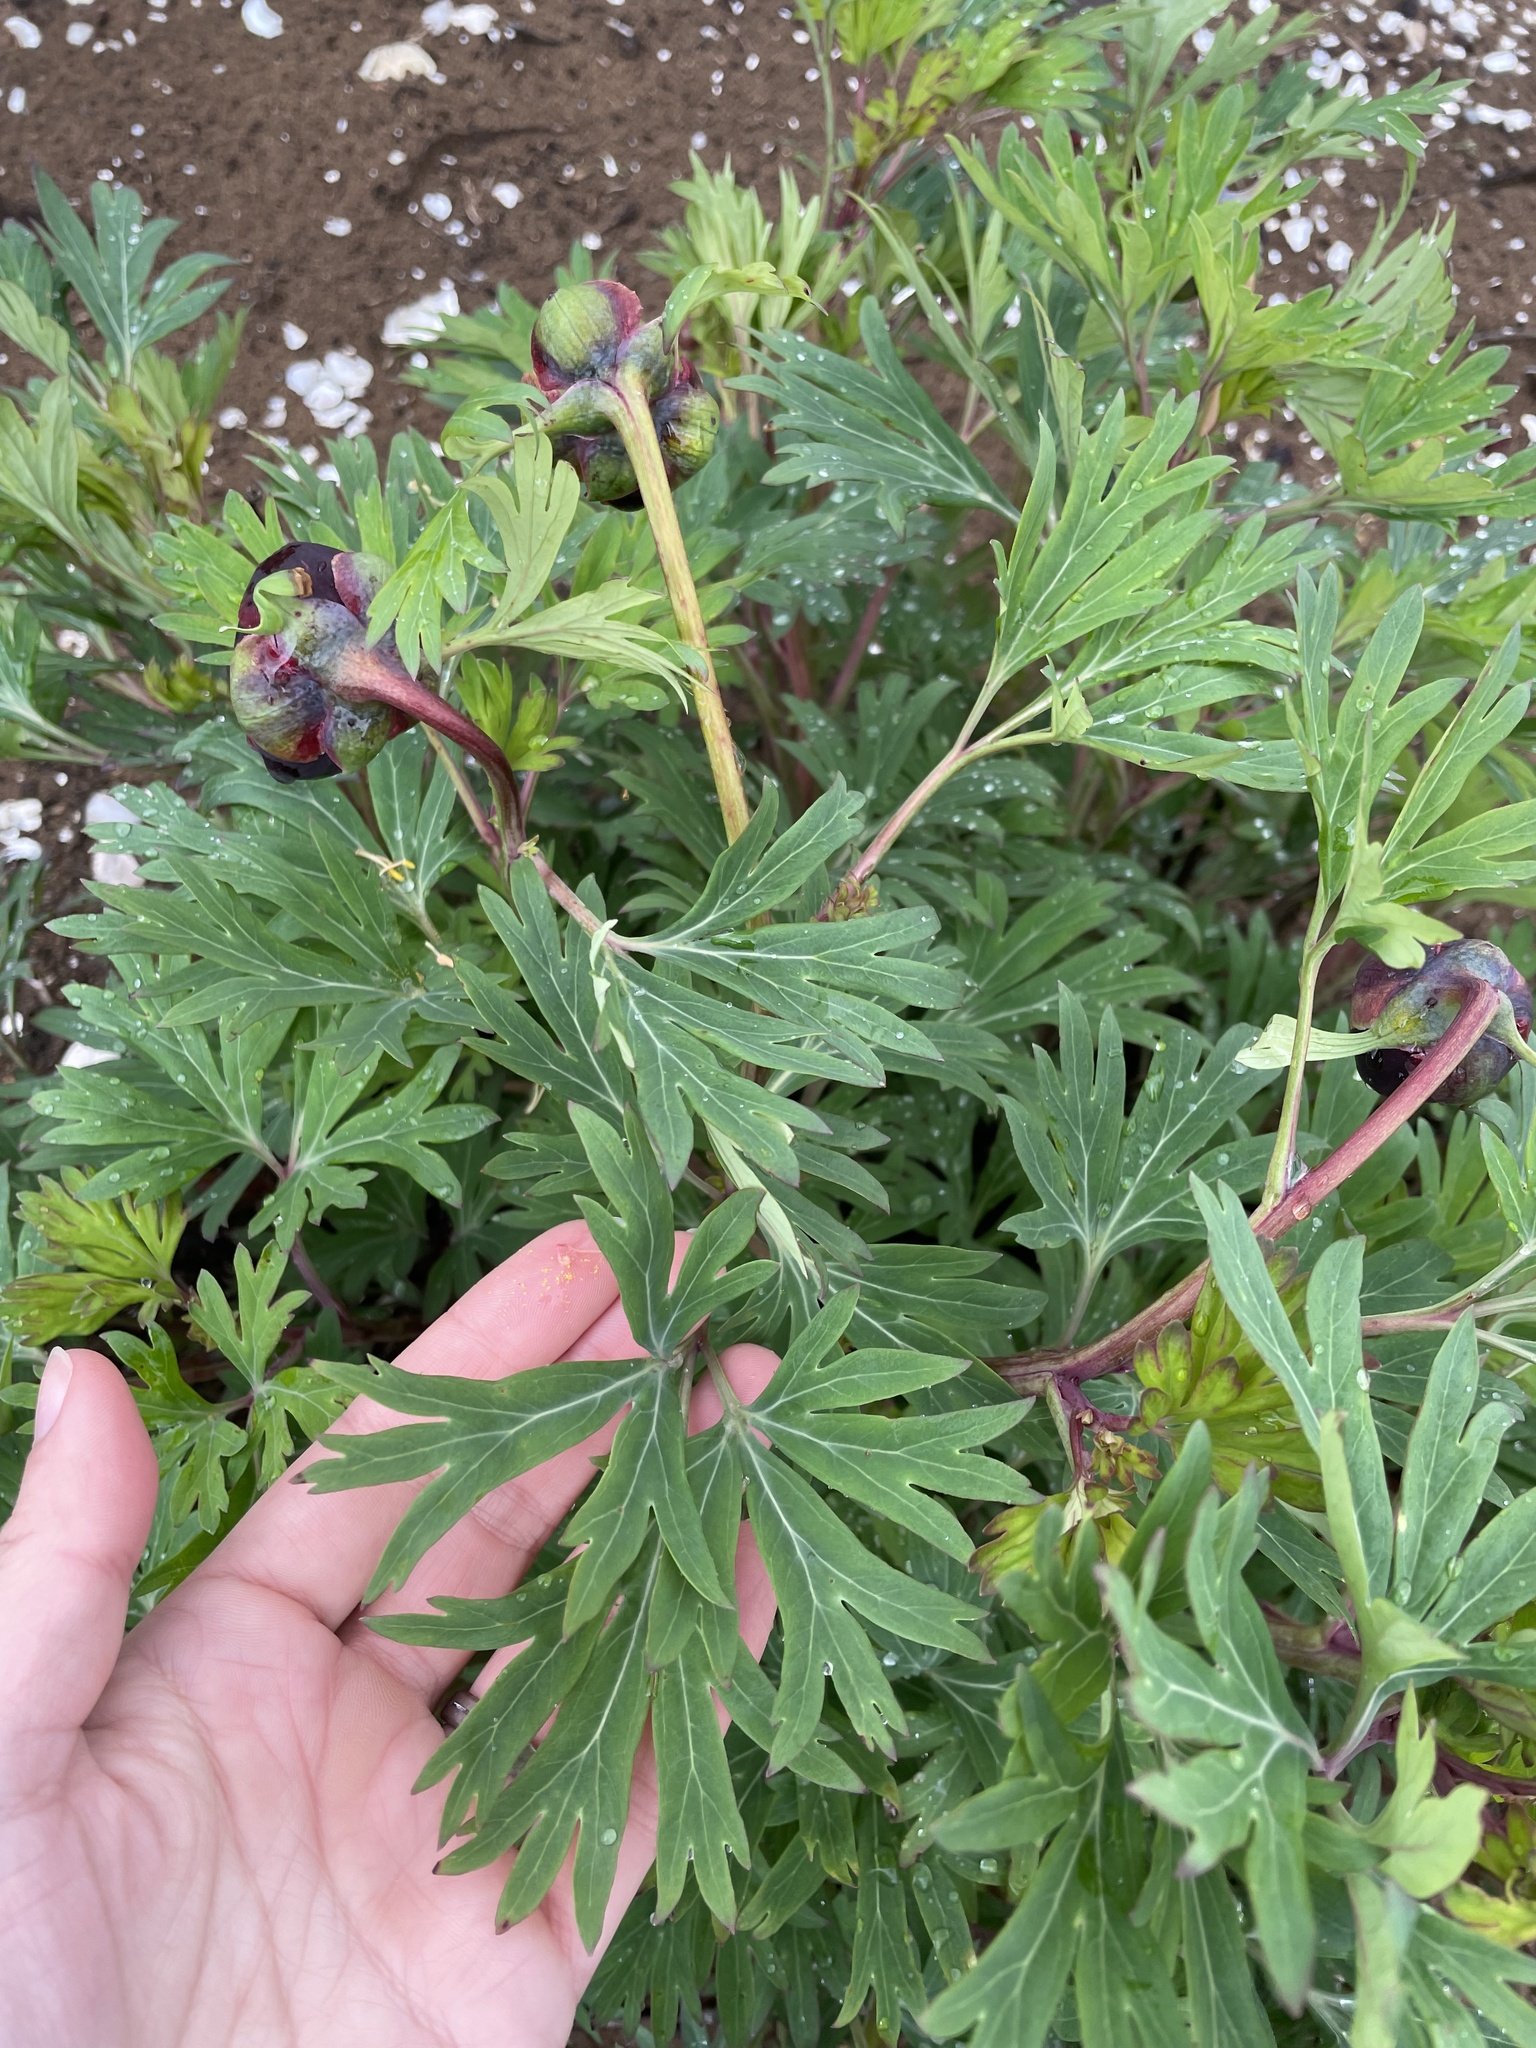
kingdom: Plantae
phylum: Tracheophyta
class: Magnoliopsida
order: Saxifragales
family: Paeoniaceae
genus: Paeonia
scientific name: Paeonia californica
